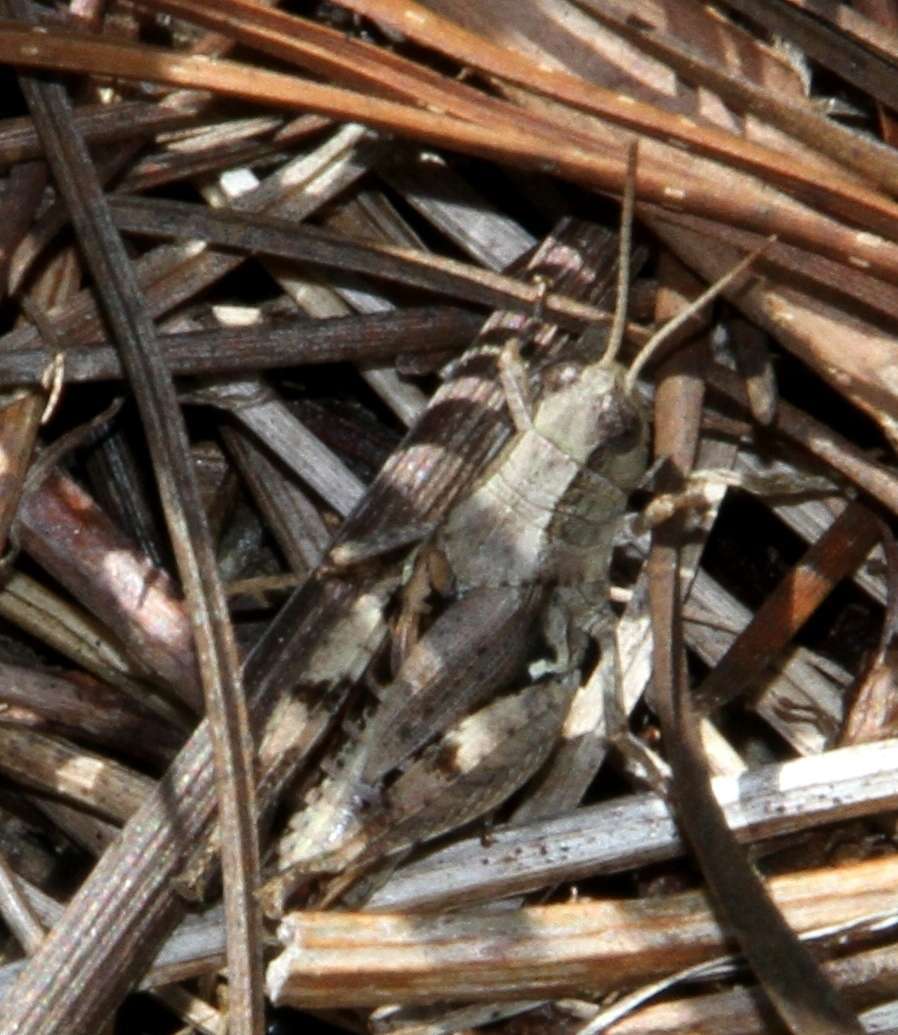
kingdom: Animalia
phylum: Arthropoda
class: Insecta
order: Orthoptera
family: Acrididae
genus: Phaulacridium
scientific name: Phaulacridium vittatum
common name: Wingless grasshopper
